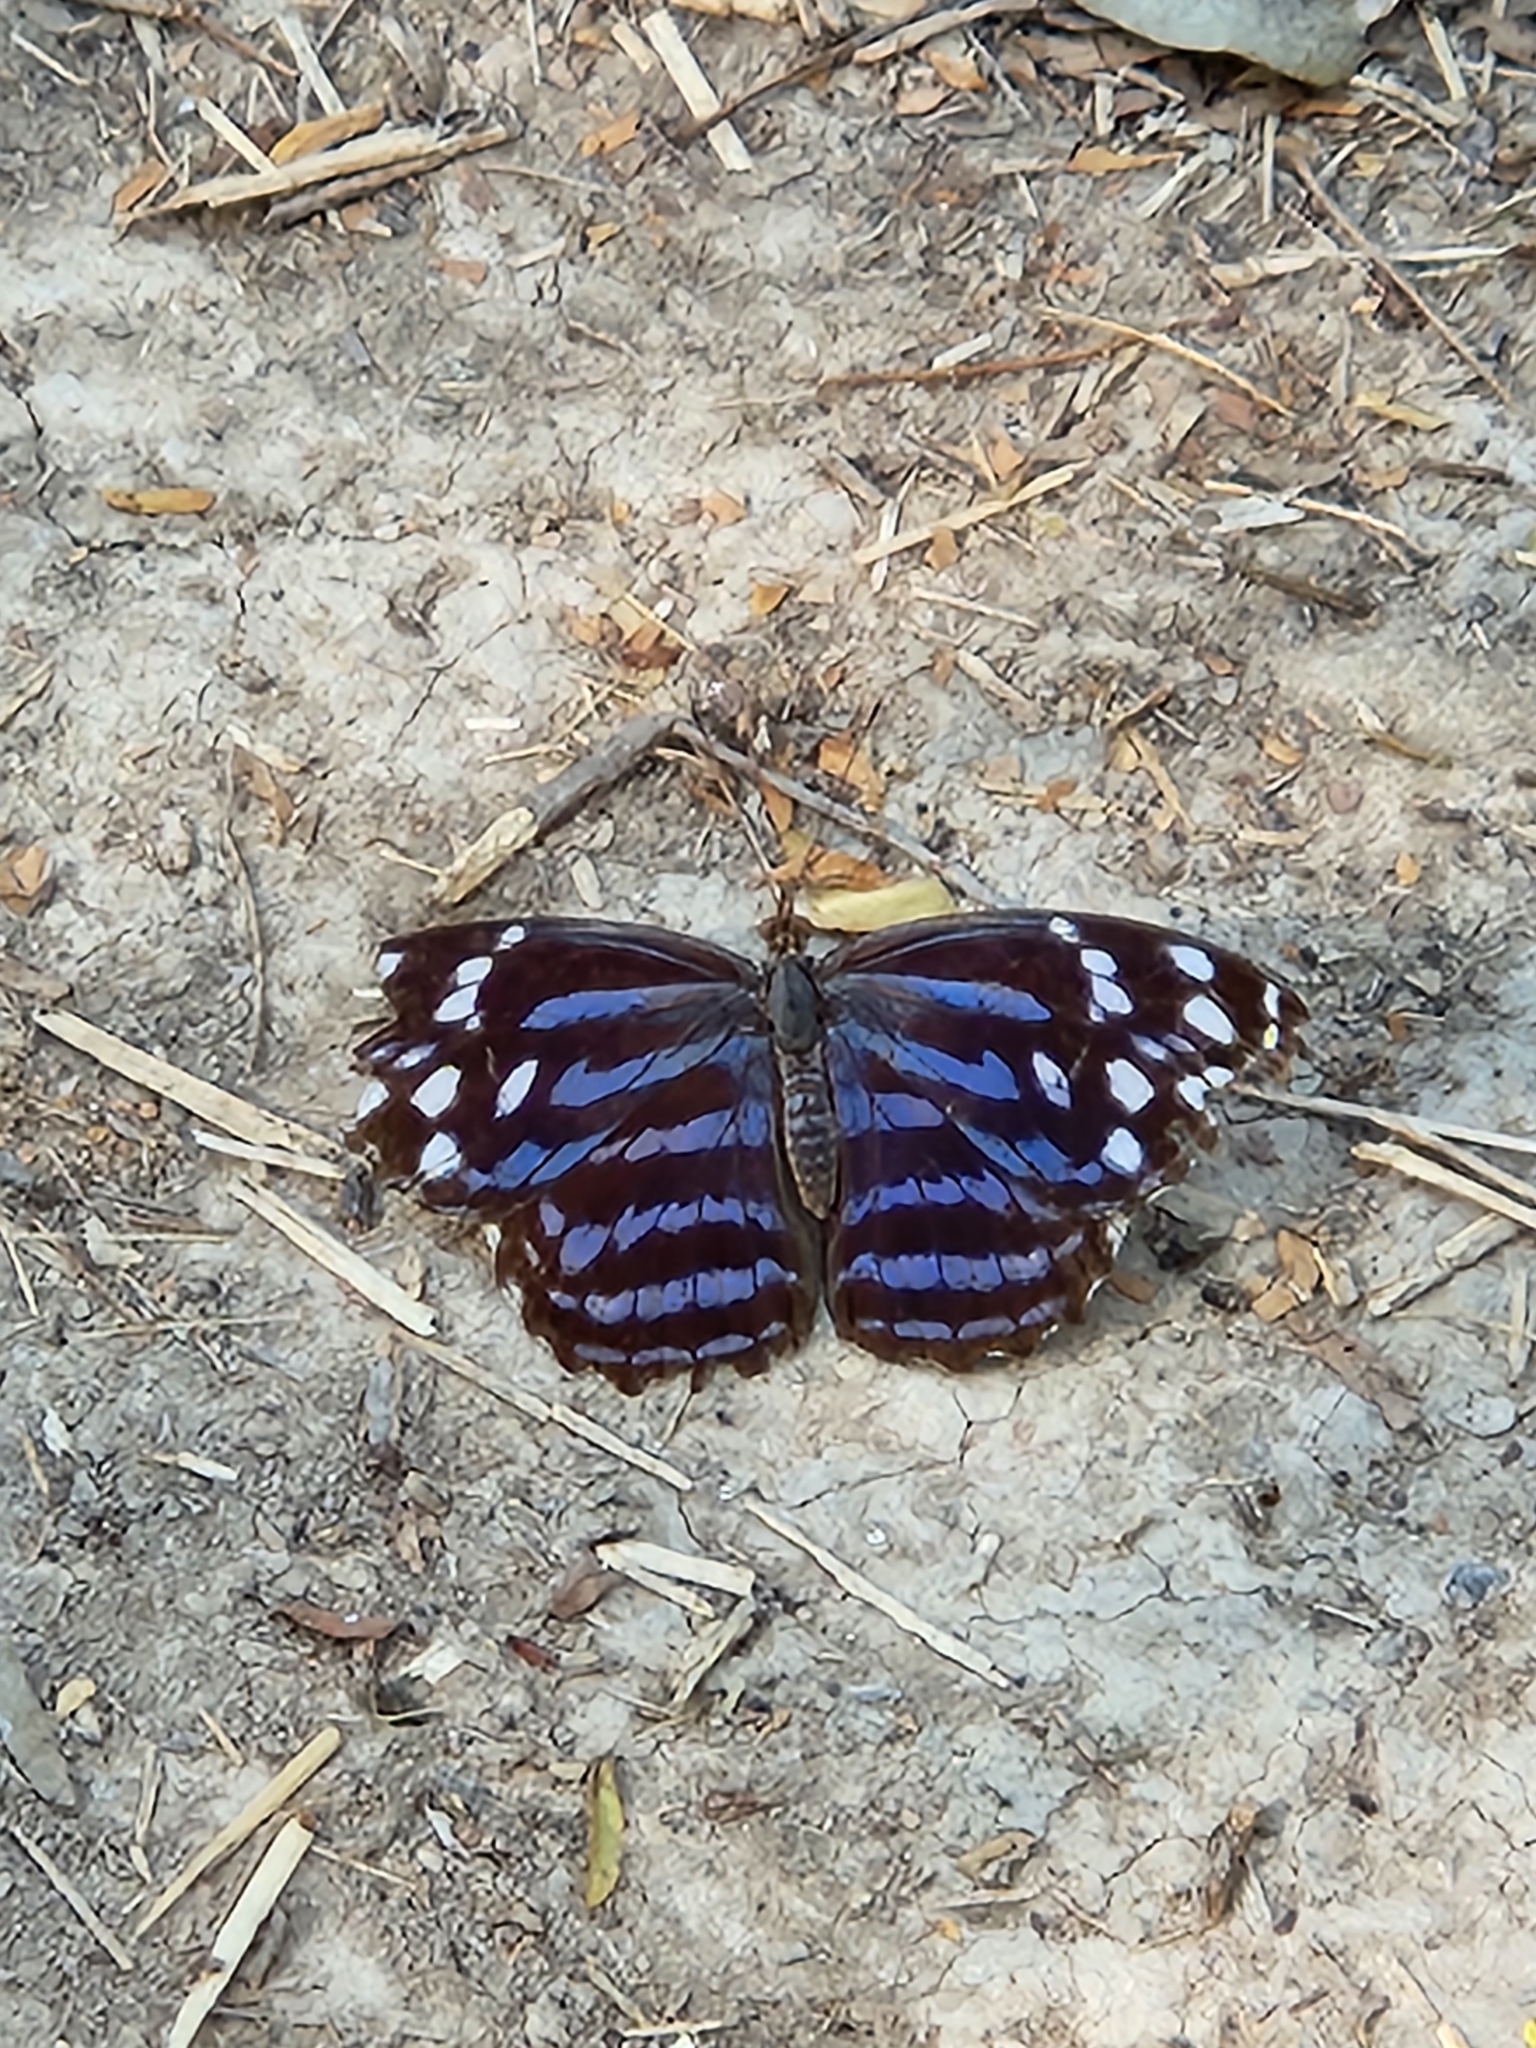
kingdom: Animalia
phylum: Arthropoda
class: Insecta
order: Lepidoptera
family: Nymphalidae
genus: Myscelia
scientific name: Myscelia ethusa
